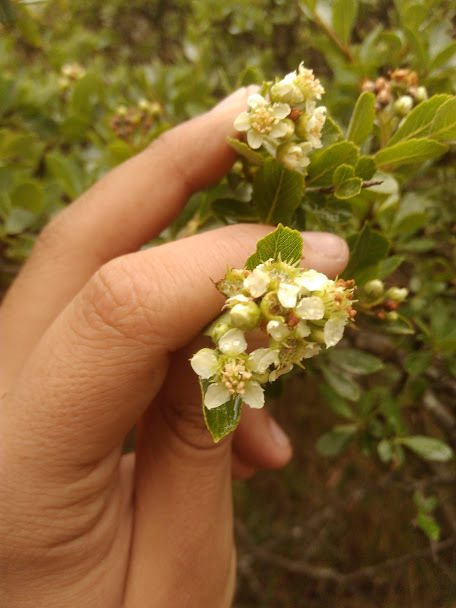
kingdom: Plantae
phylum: Tracheophyta
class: Magnoliopsida
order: Rosales
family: Rosaceae
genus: Hesperomeles
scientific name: Hesperomeles obtusifolia
